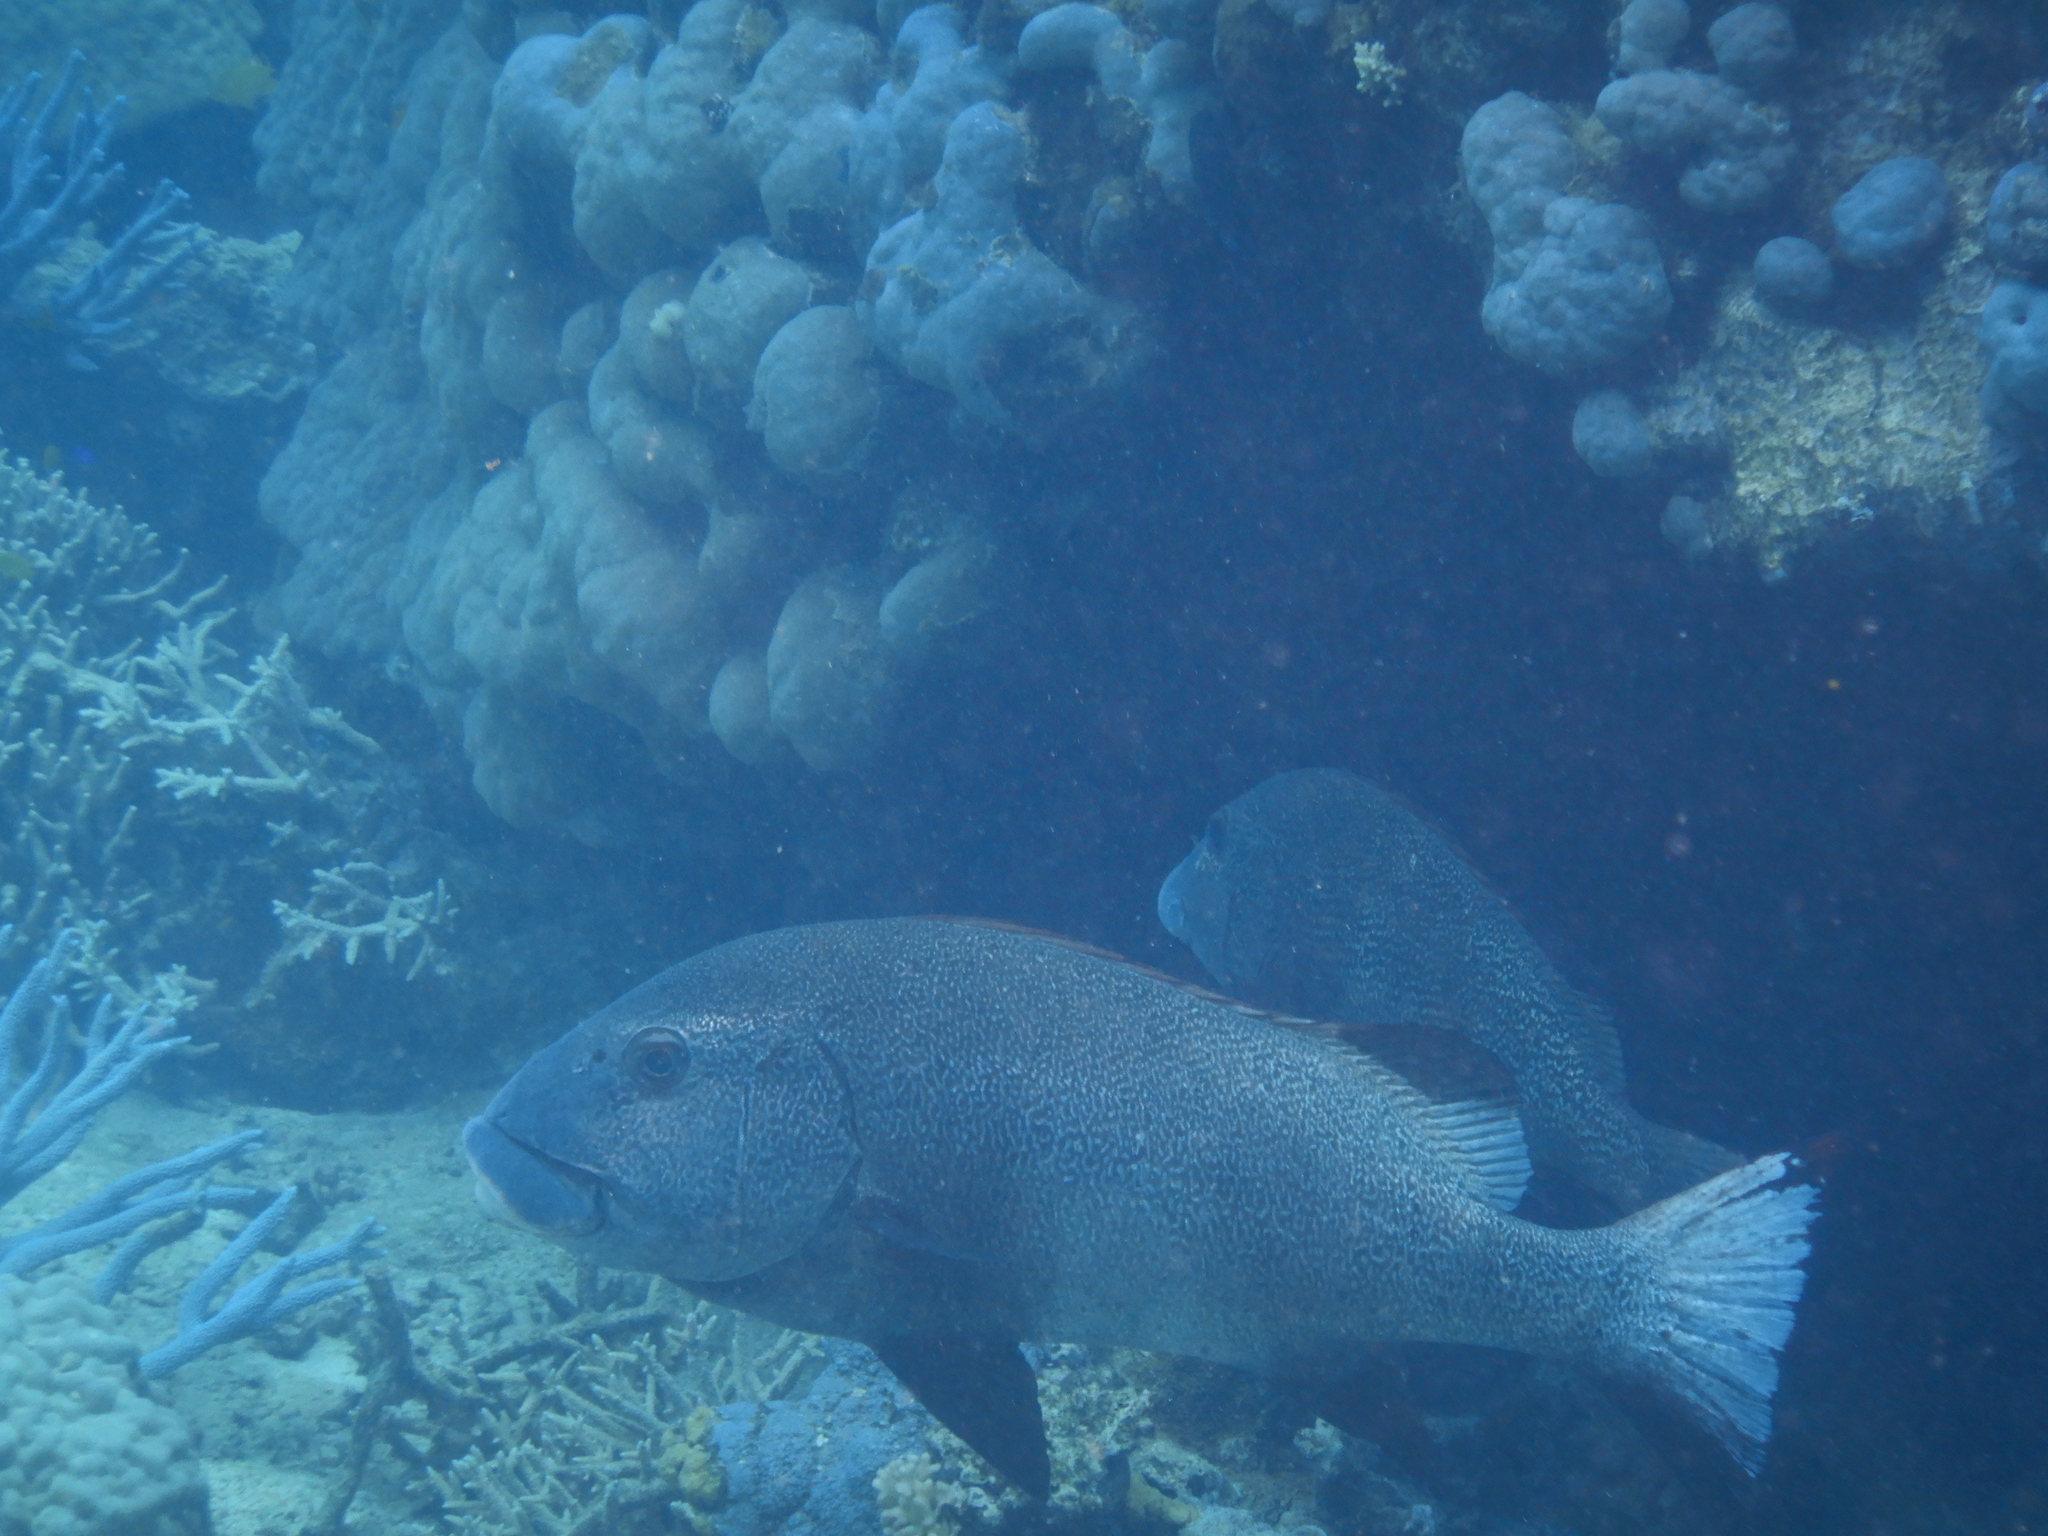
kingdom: Animalia
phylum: Chordata
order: Perciformes
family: Haemulidae
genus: Plectorhinchus
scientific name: Plectorhinchus albovittatus
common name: Giant sweetlips
